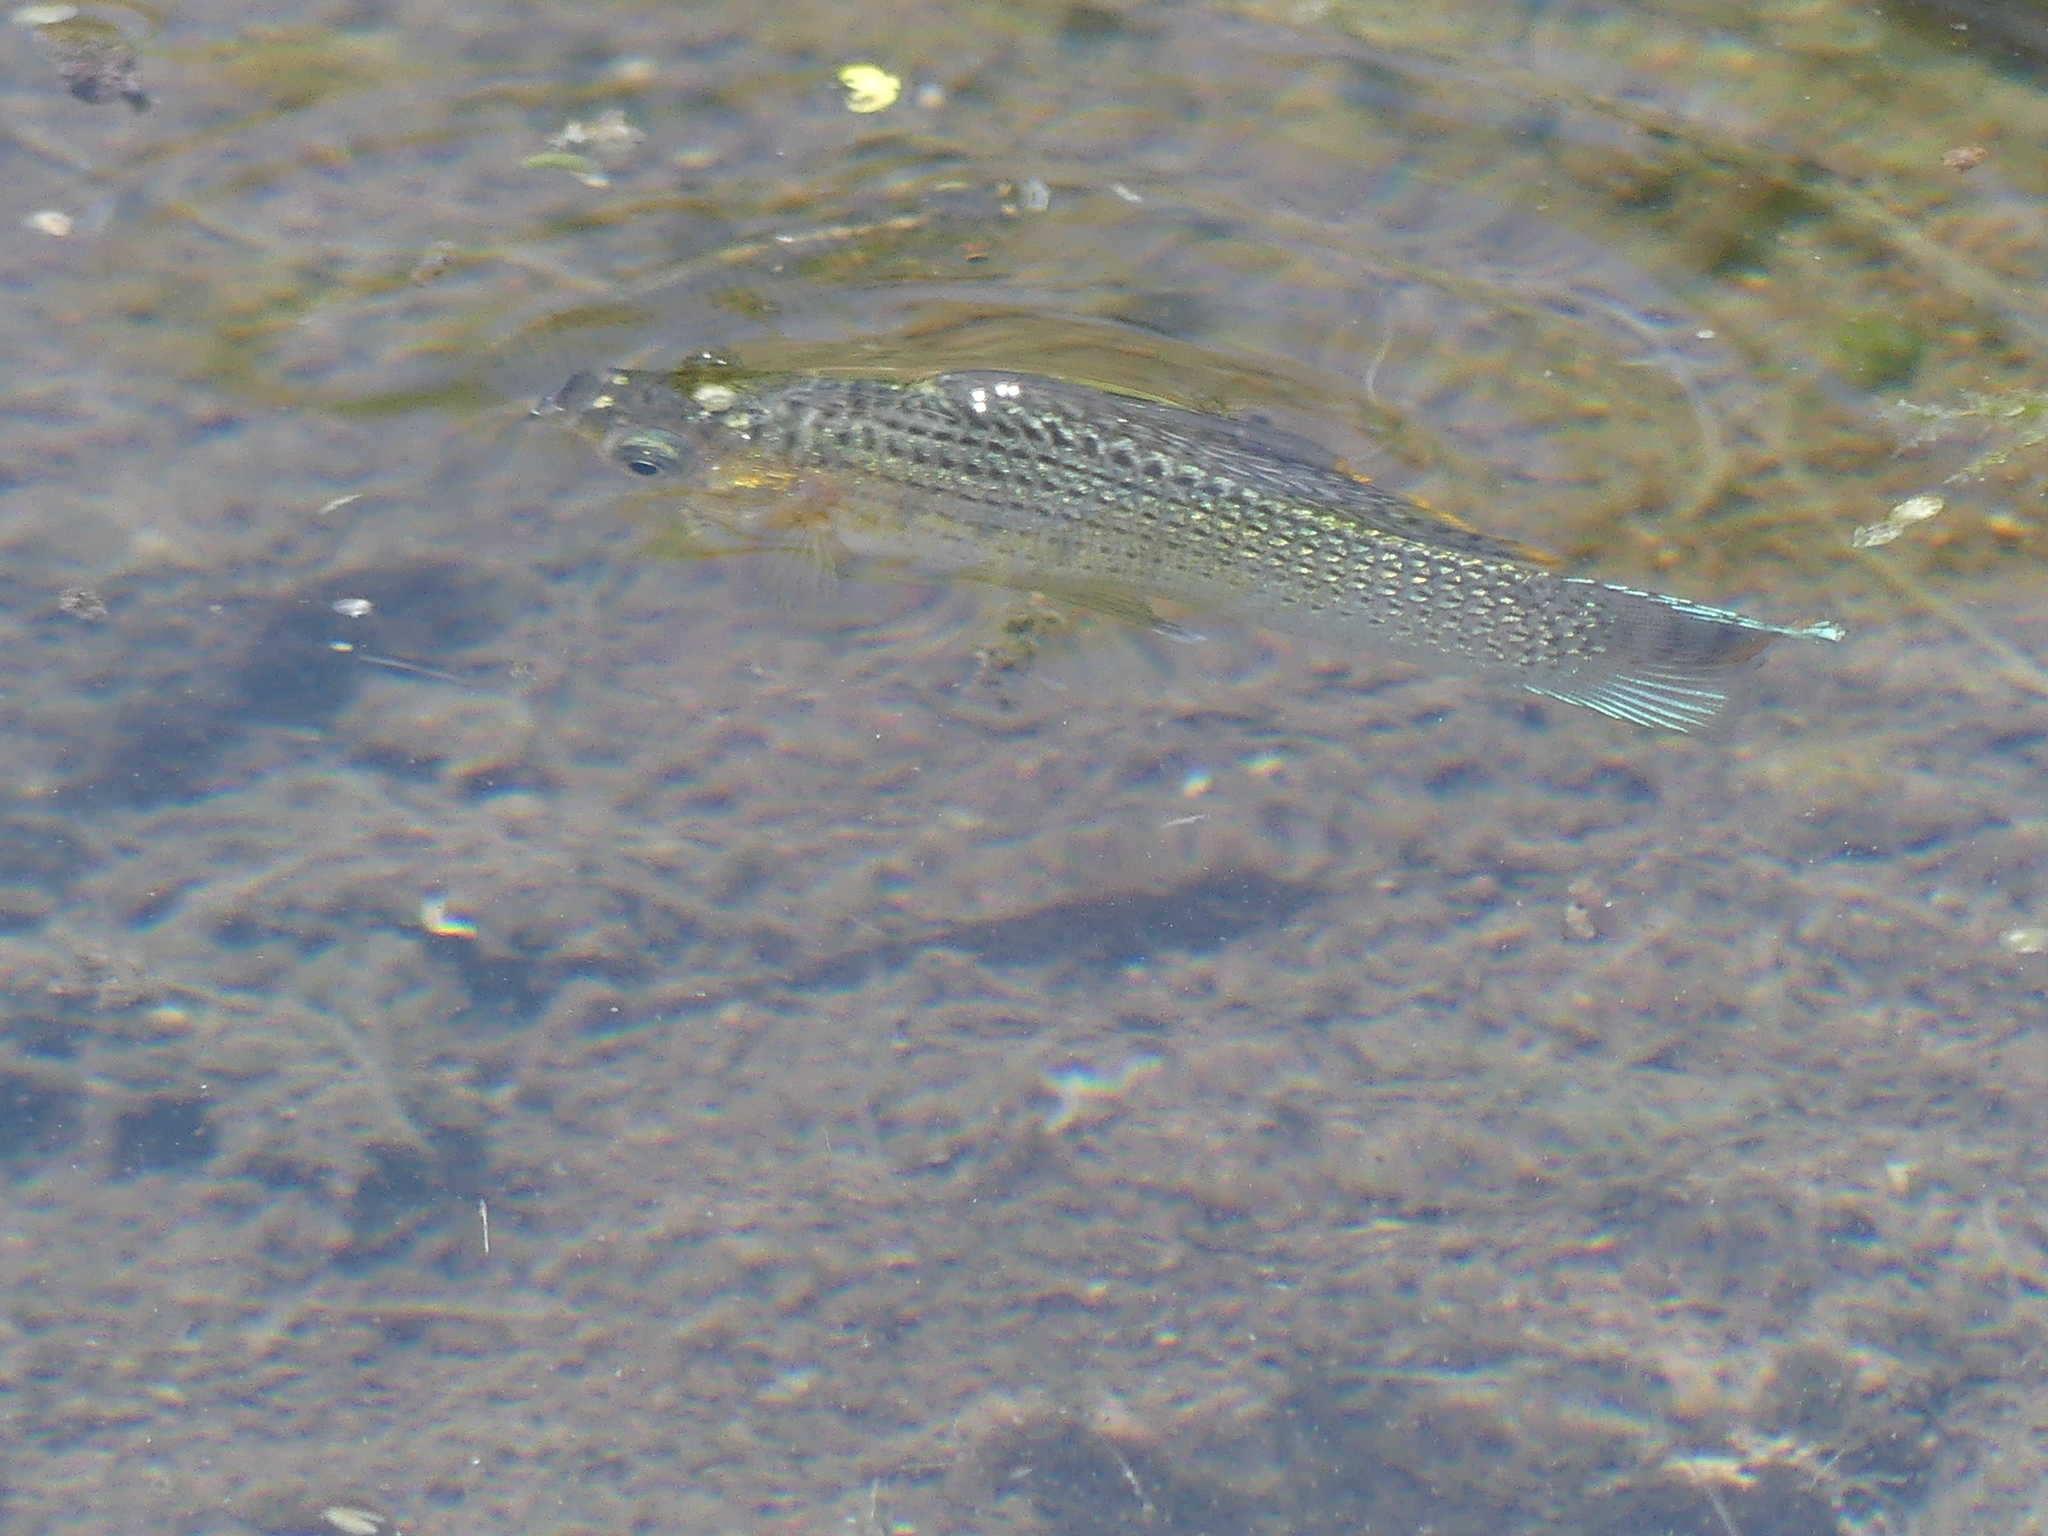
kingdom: Animalia
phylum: Chordata
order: Cyprinodontiformes
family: Poeciliidae
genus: Poecilia
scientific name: Poecilia latipinna
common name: Sailfin molly
